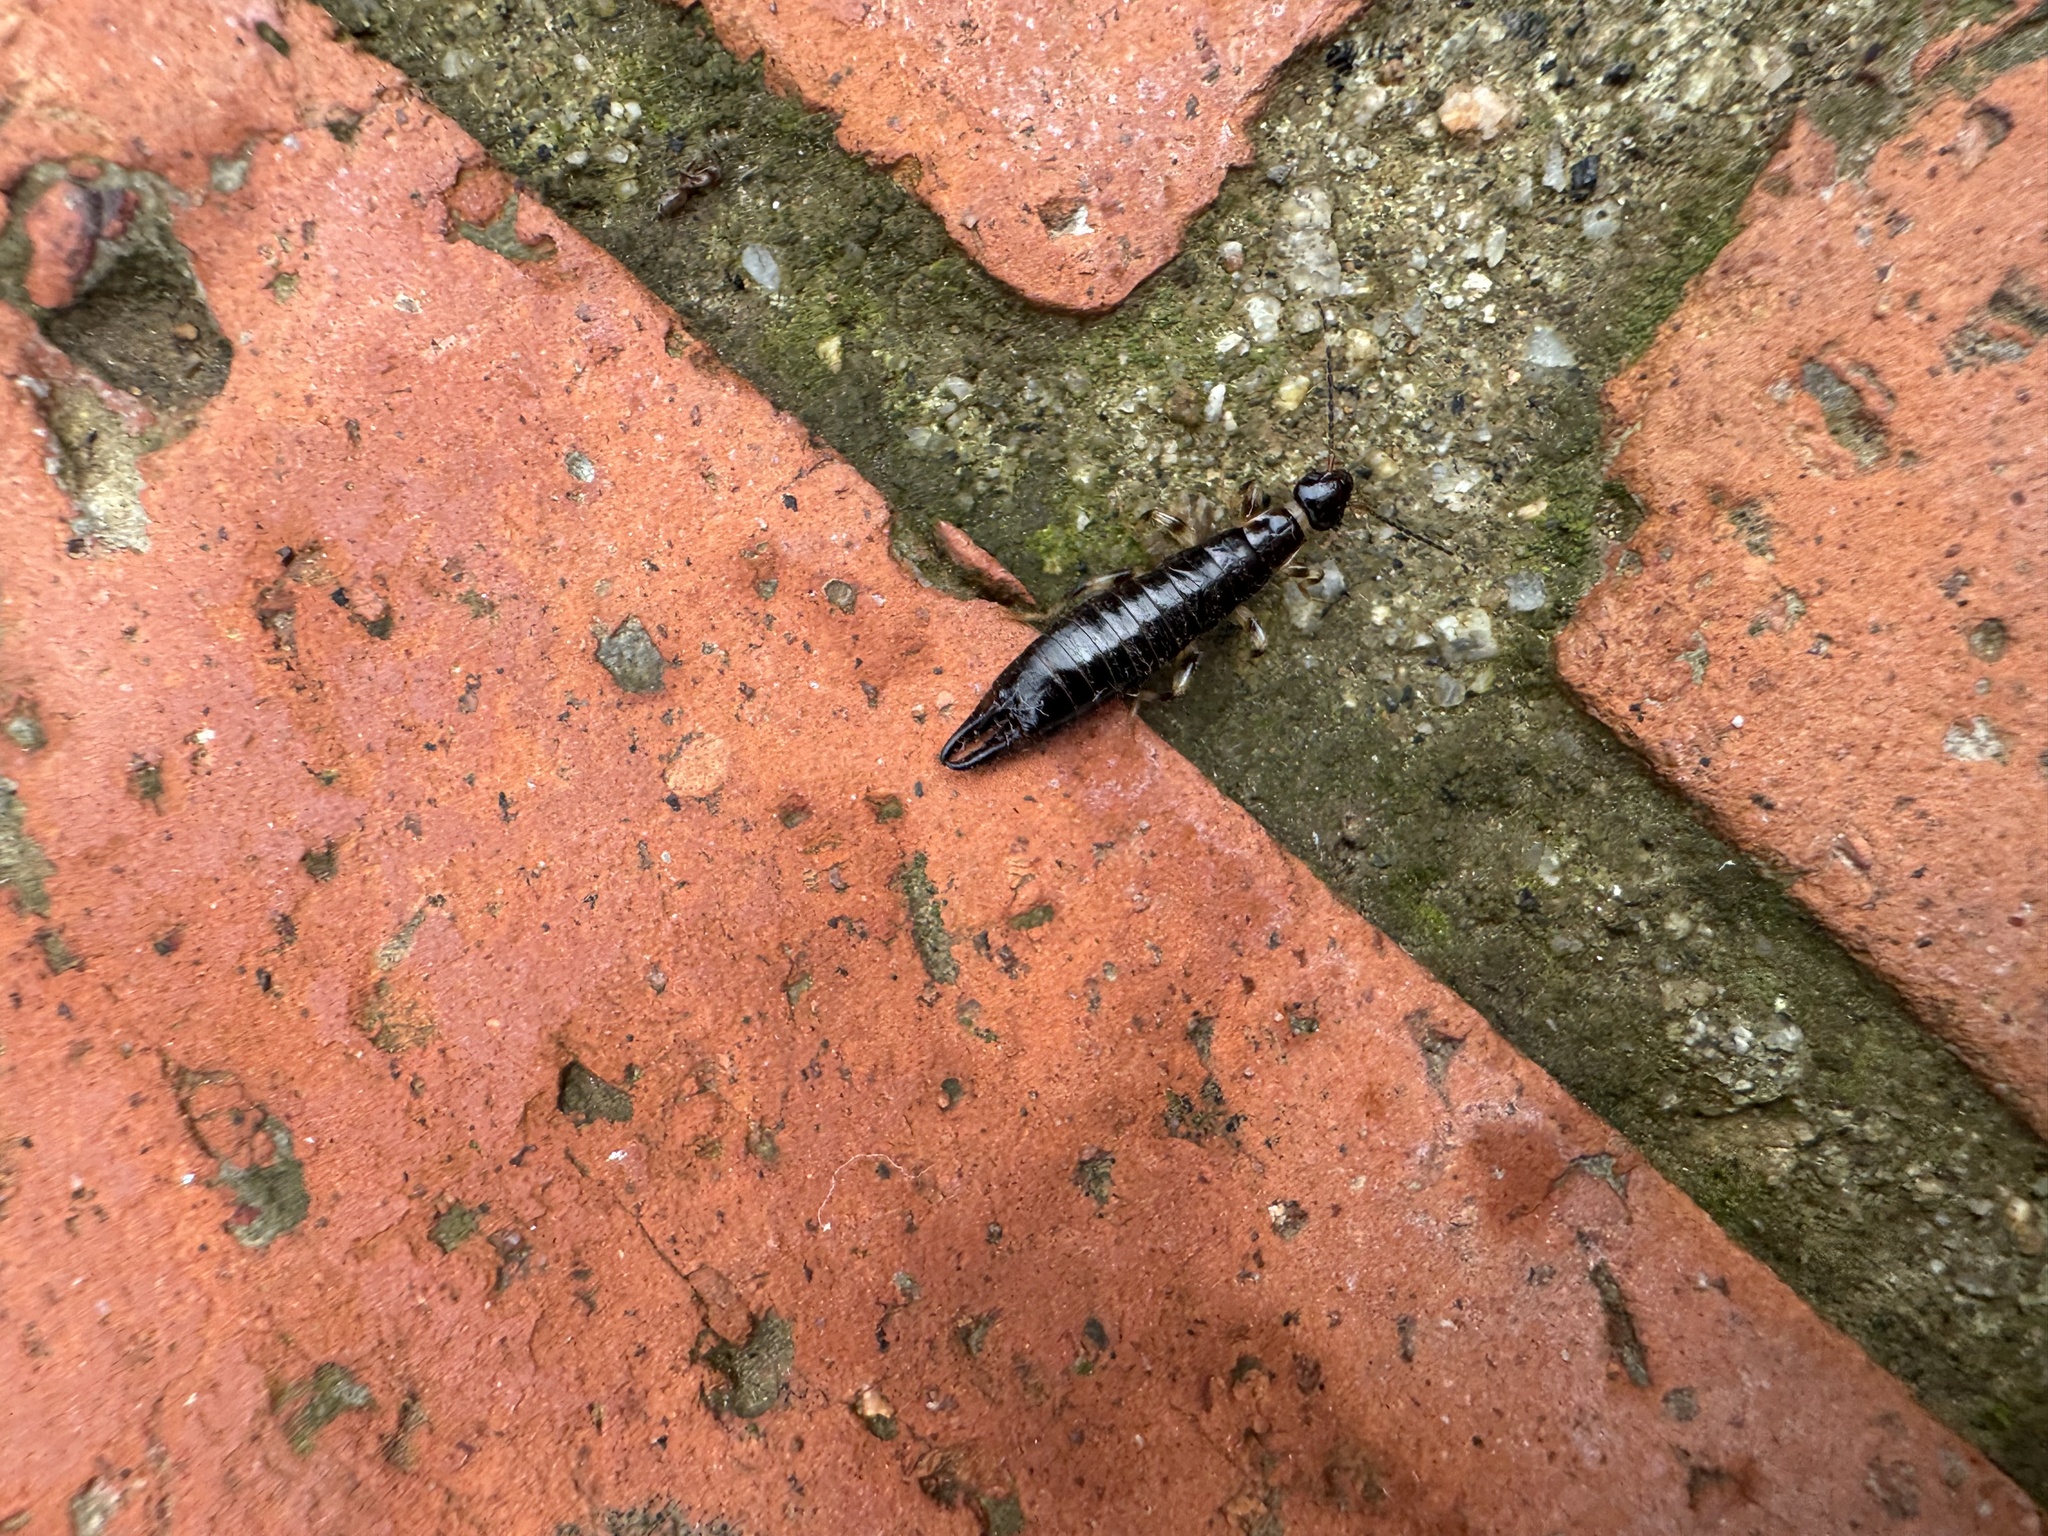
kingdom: Animalia
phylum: Arthropoda
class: Insecta
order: Dermaptera
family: Anisolabididae
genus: Euborellia
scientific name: Euborellia annulipes
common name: Ringlegged earwig
